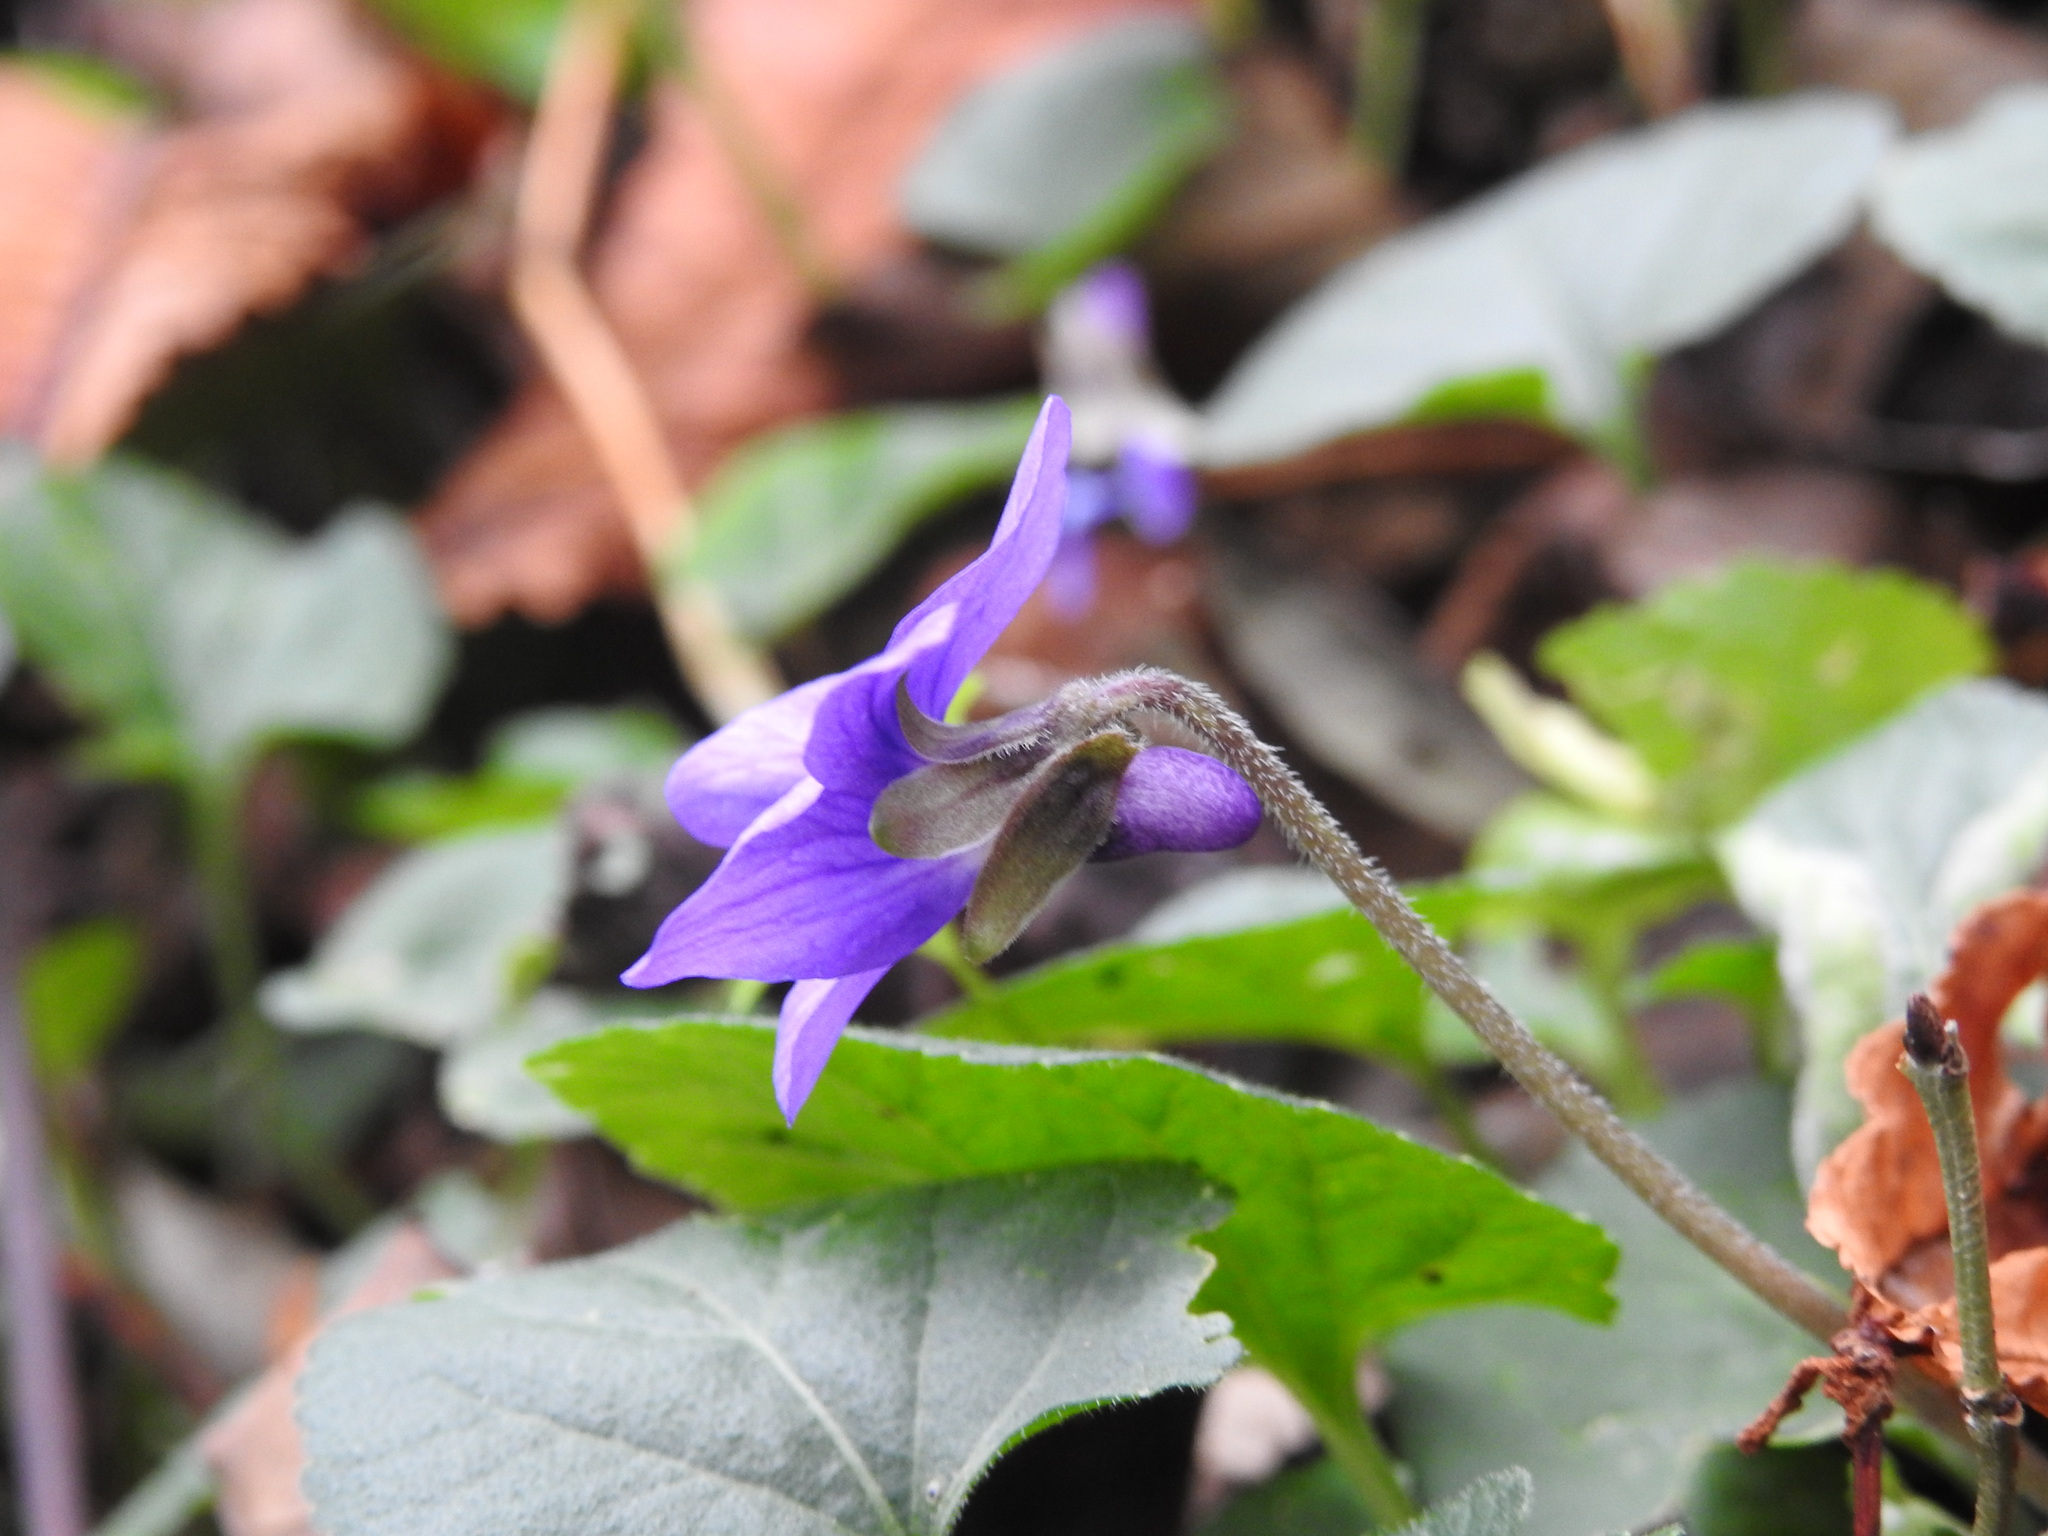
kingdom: Plantae
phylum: Tracheophyta
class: Magnoliopsida
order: Malpighiales
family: Violaceae
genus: Viola
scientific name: Viola odorata
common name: Sweet violet
